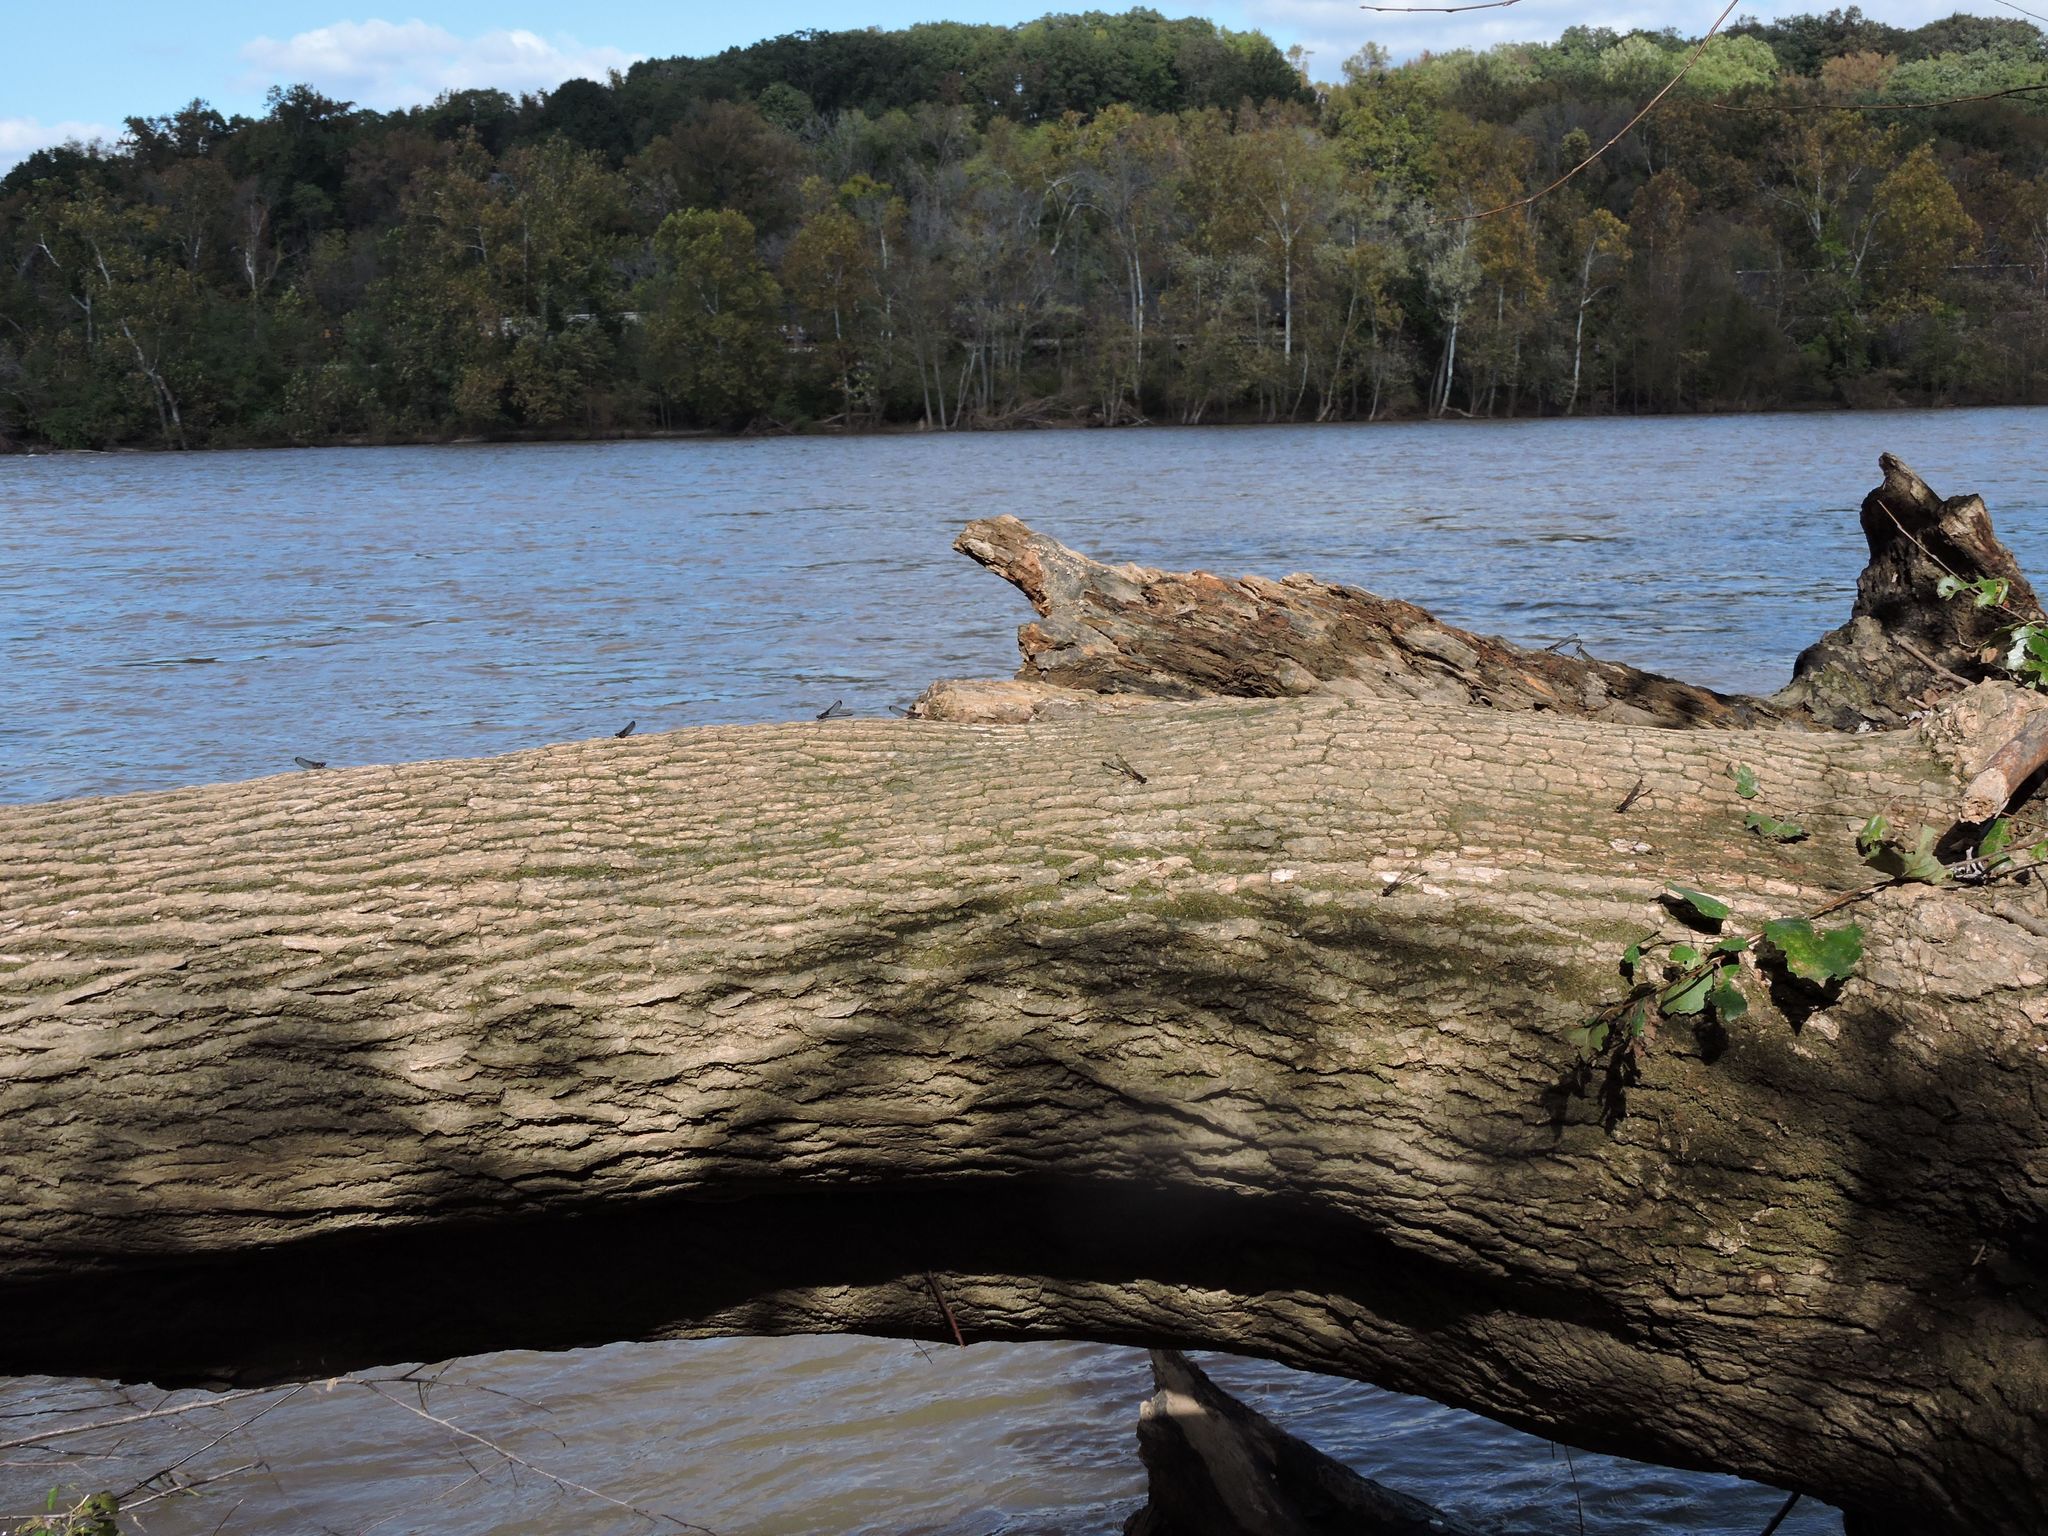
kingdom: Animalia
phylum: Arthropoda
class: Insecta
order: Odonata
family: Calopterygidae
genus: Hetaerina
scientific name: Hetaerina titia
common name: Smoky rubyspot
